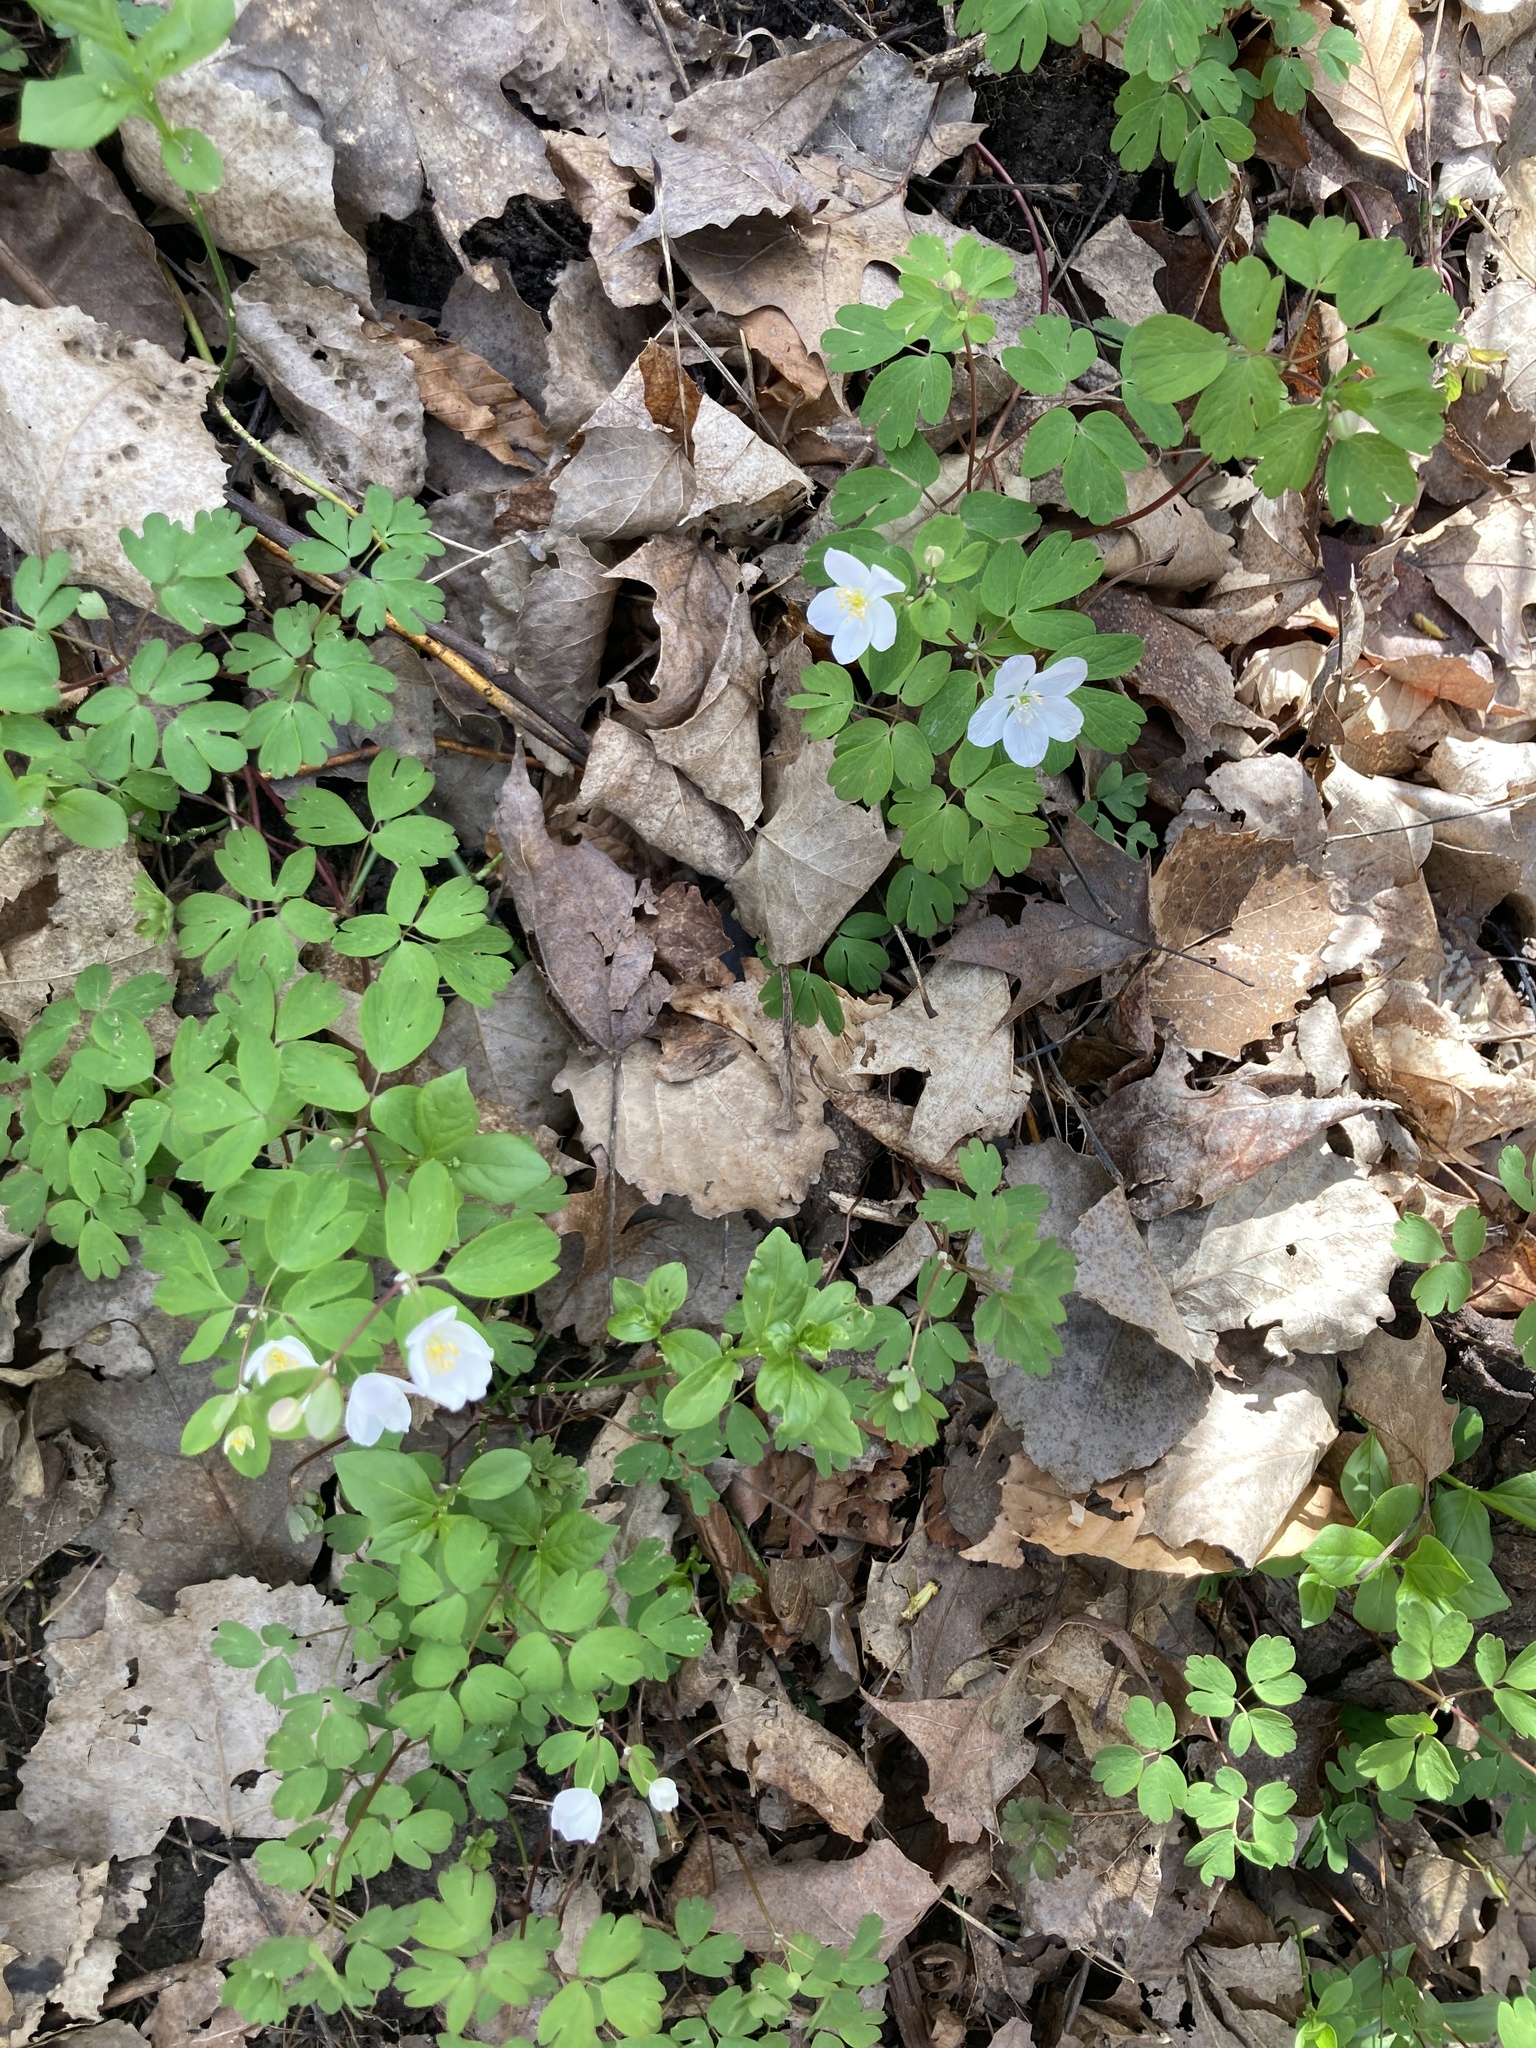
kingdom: Plantae
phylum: Tracheophyta
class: Magnoliopsida
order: Ranunculales
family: Ranunculaceae
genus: Enemion
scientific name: Enemion biternatum
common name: Eastern false rue-anemone
